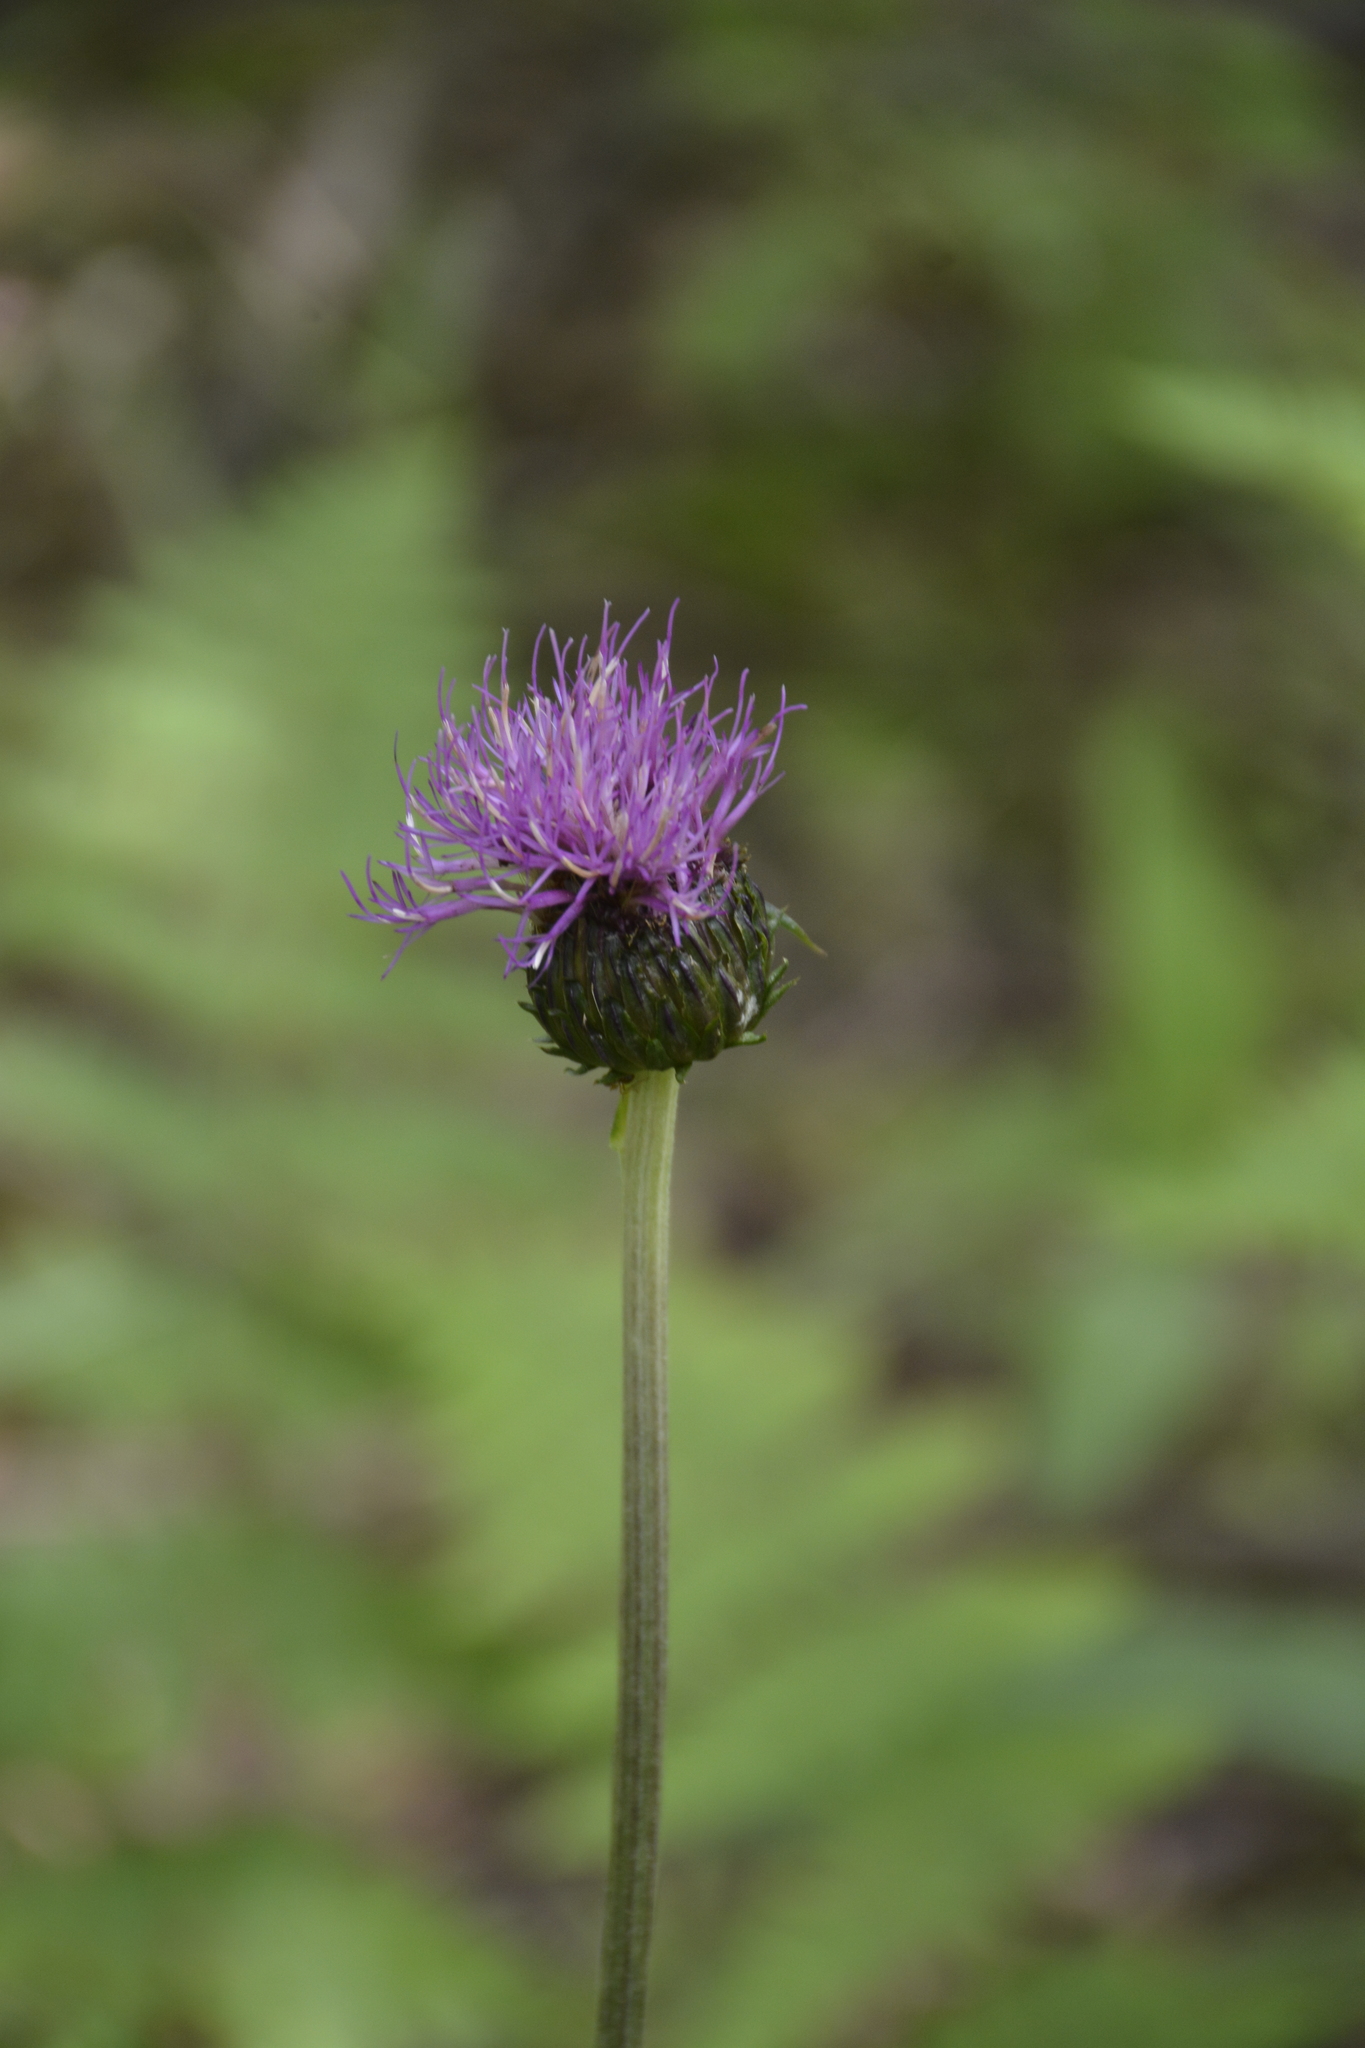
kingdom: Plantae
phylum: Tracheophyta
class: Magnoliopsida
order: Asterales
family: Asteraceae
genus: Cirsium
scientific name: Cirsium heterophyllum
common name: Melancholy thistle
